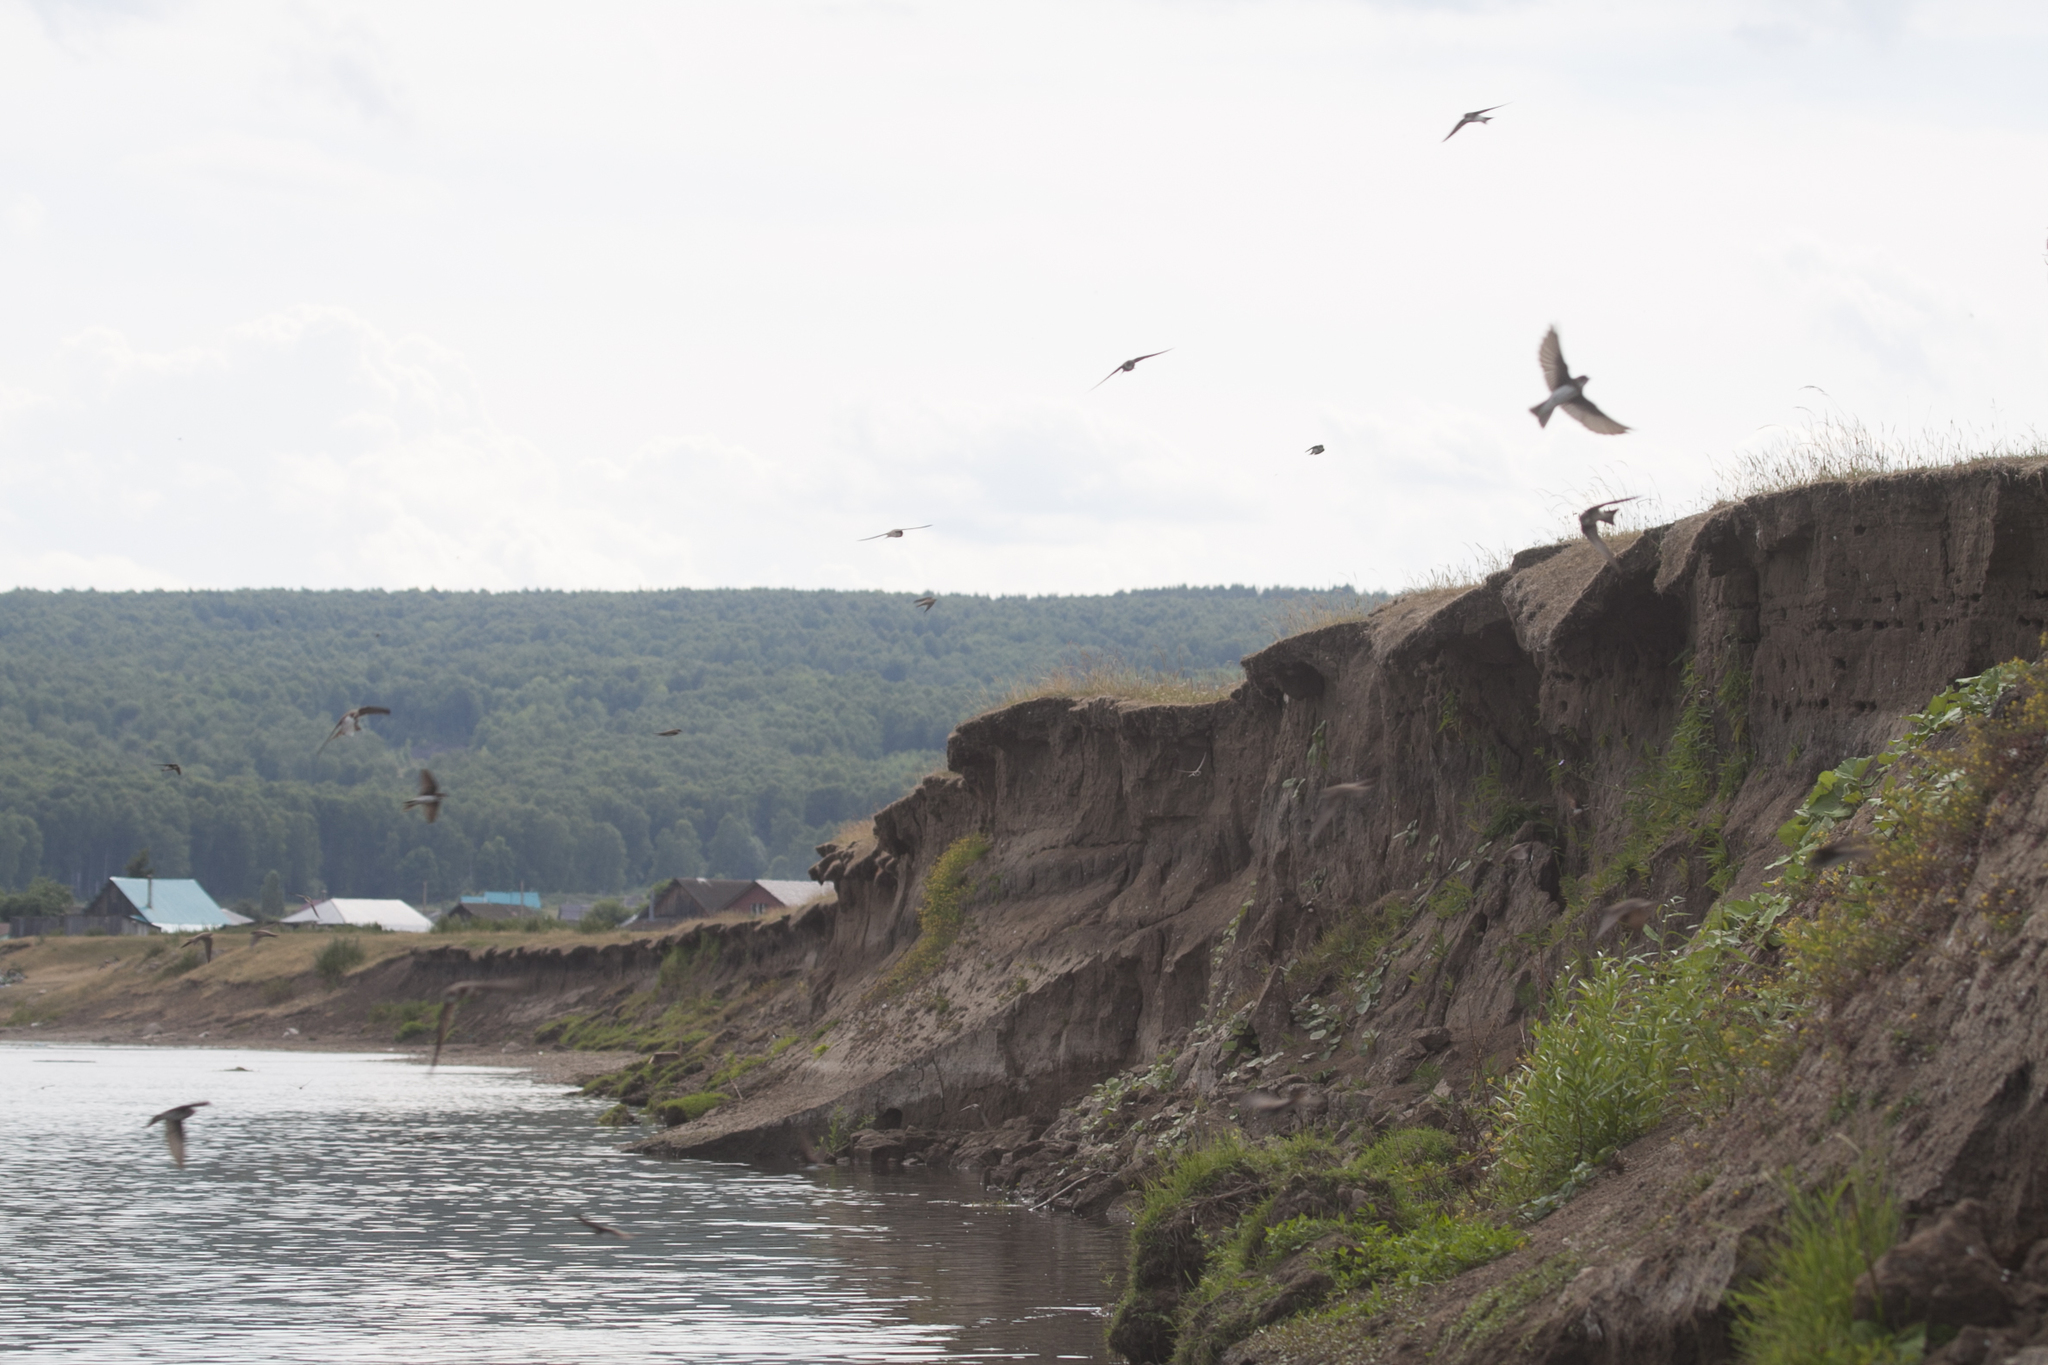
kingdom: Animalia
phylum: Chordata
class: Aves
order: Passeriformes
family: Hirundinidae
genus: Riparia
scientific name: Riparia riparia
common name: Sand martin
